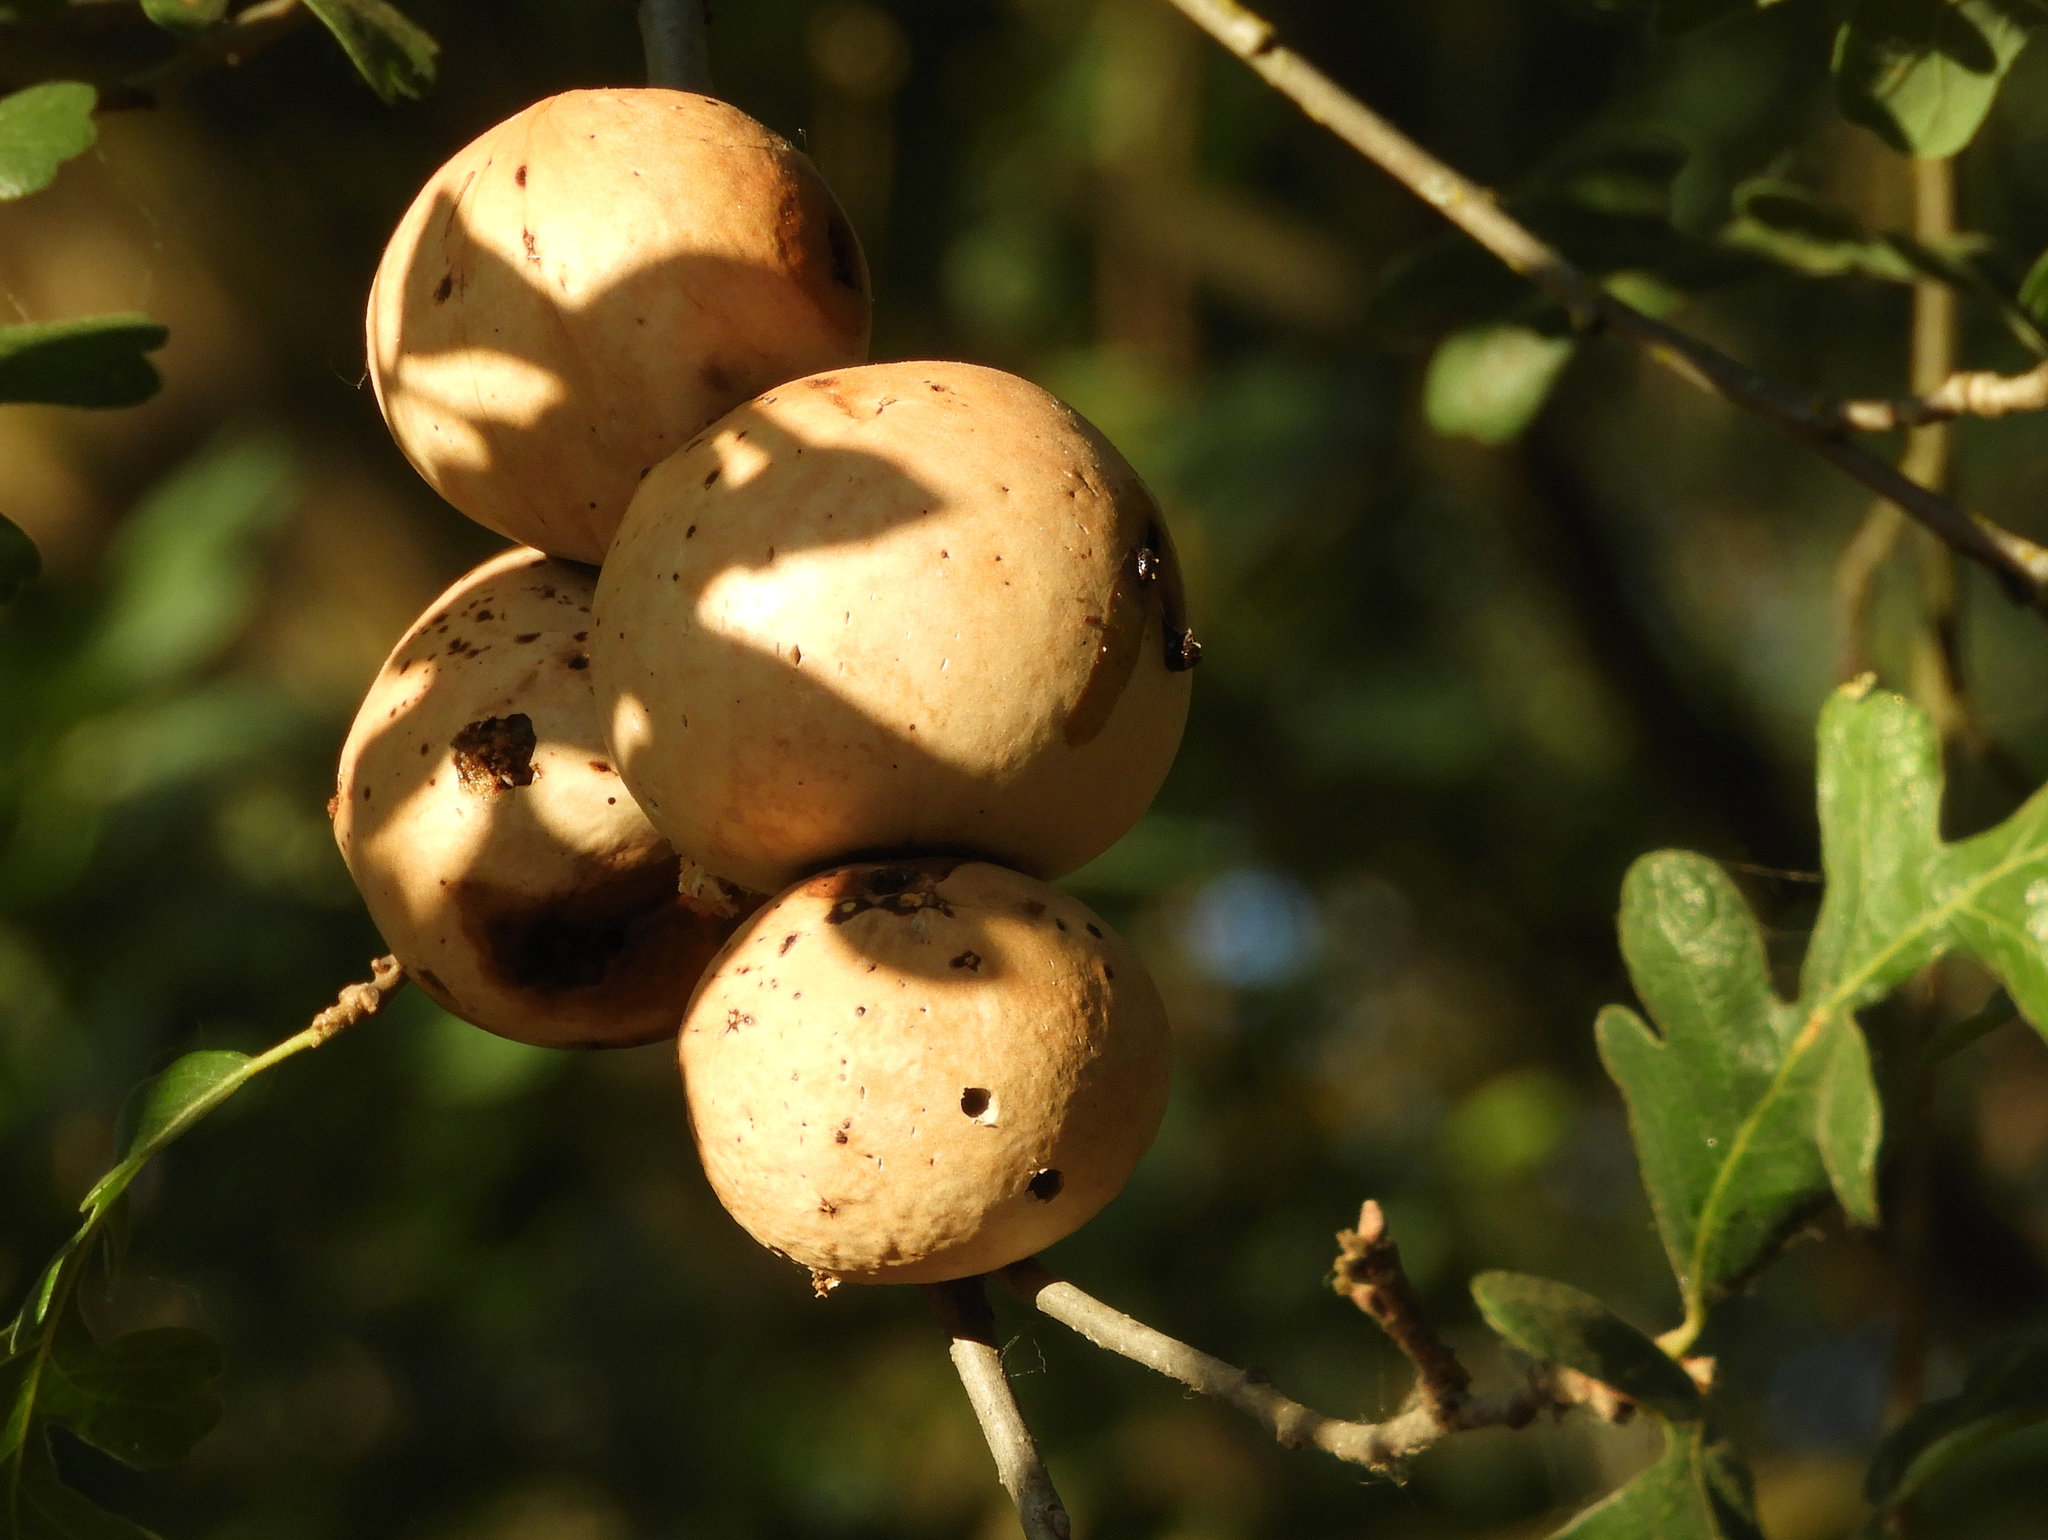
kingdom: Animalia
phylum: Arthropoda
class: Insecta
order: Hymenoptera
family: Cynipidae
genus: Andricus
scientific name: Andricus quercuscalifornicus
